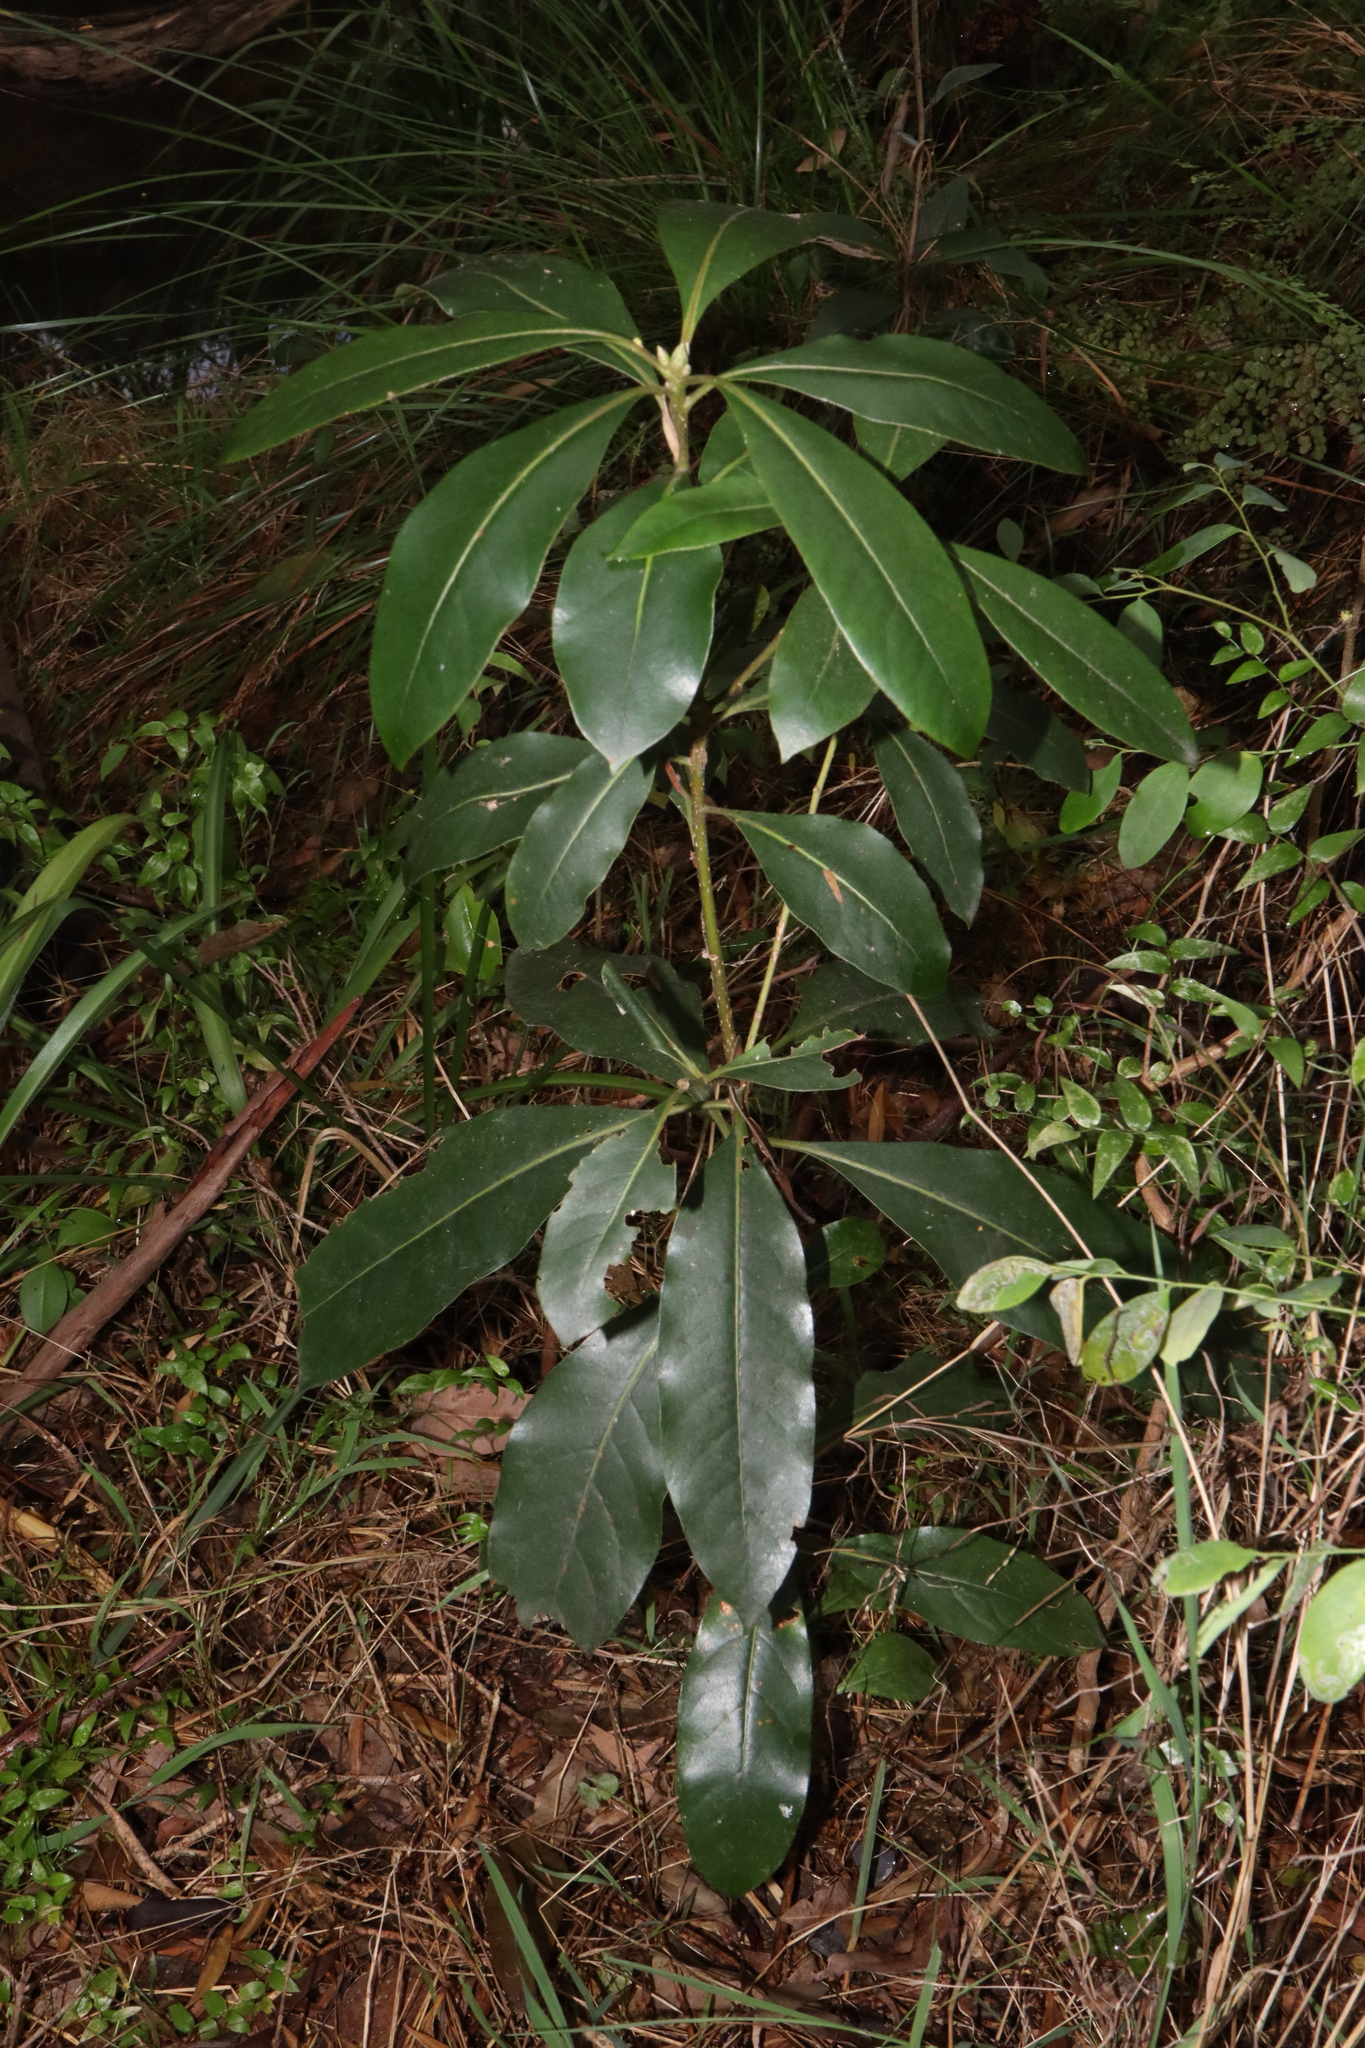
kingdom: Plantae
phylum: Tracheophyta
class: Magnoliopsida
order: Apiales
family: Pittosporaceae
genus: Pittosporum
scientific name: Pittosporum undulatum
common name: Australian cheesewood
